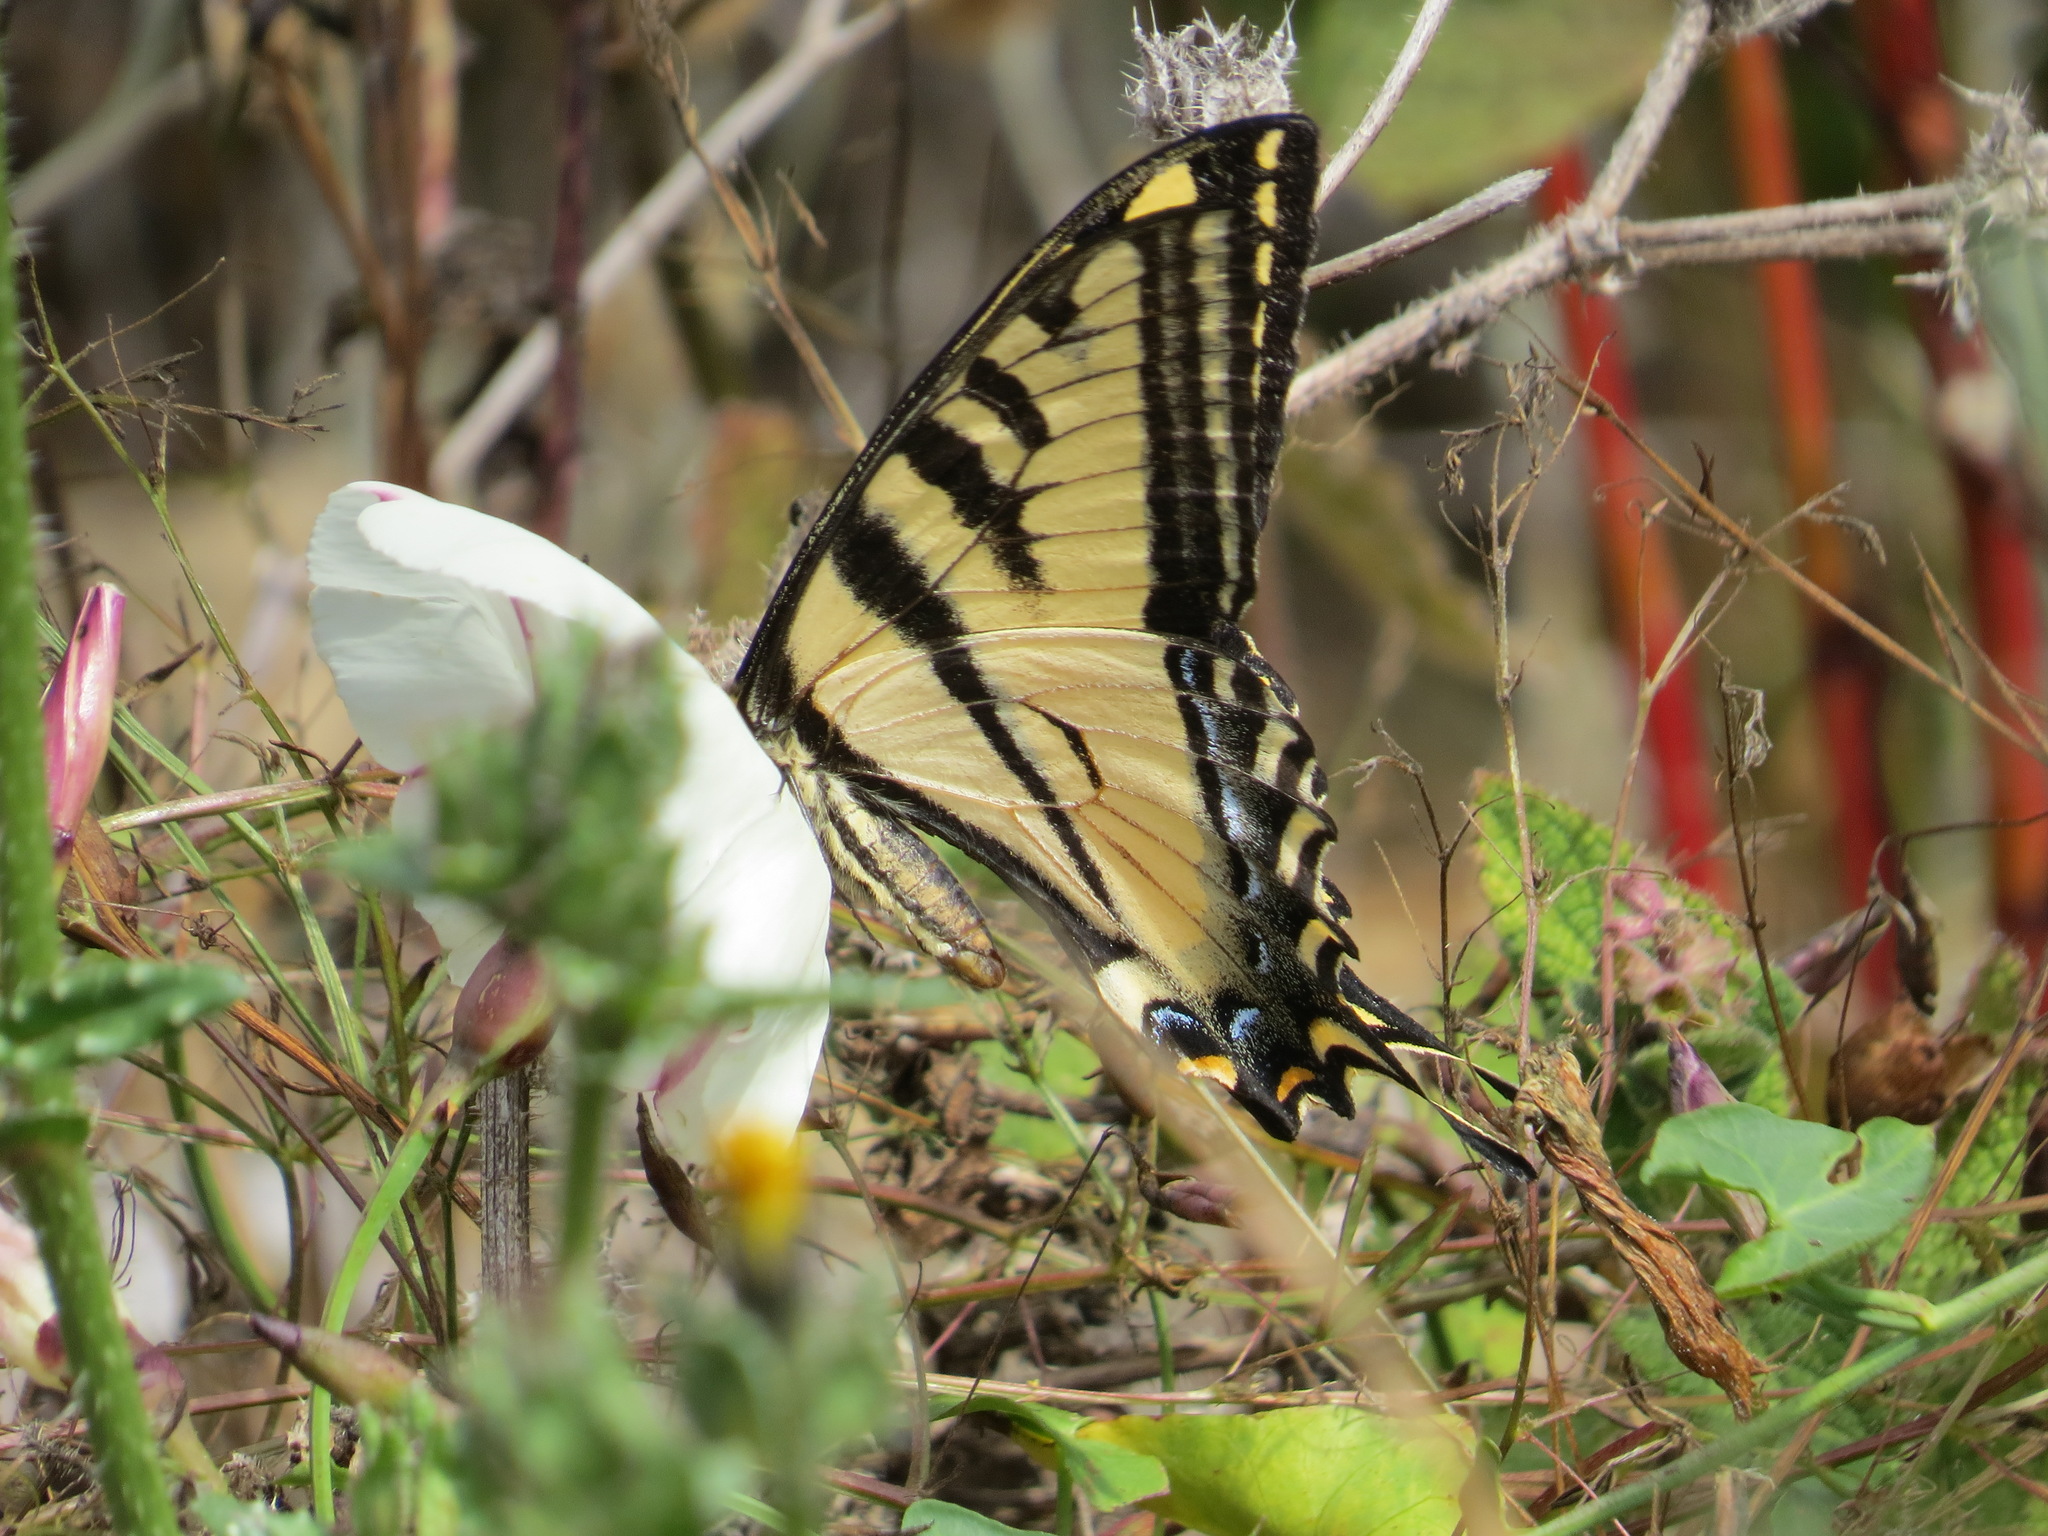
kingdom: Animalia
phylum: Arthropoda
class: Insecta
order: Lepidoptera
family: Papilionidae
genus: Papilio
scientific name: Papilio rutulus
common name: Western tiger swallowtail
